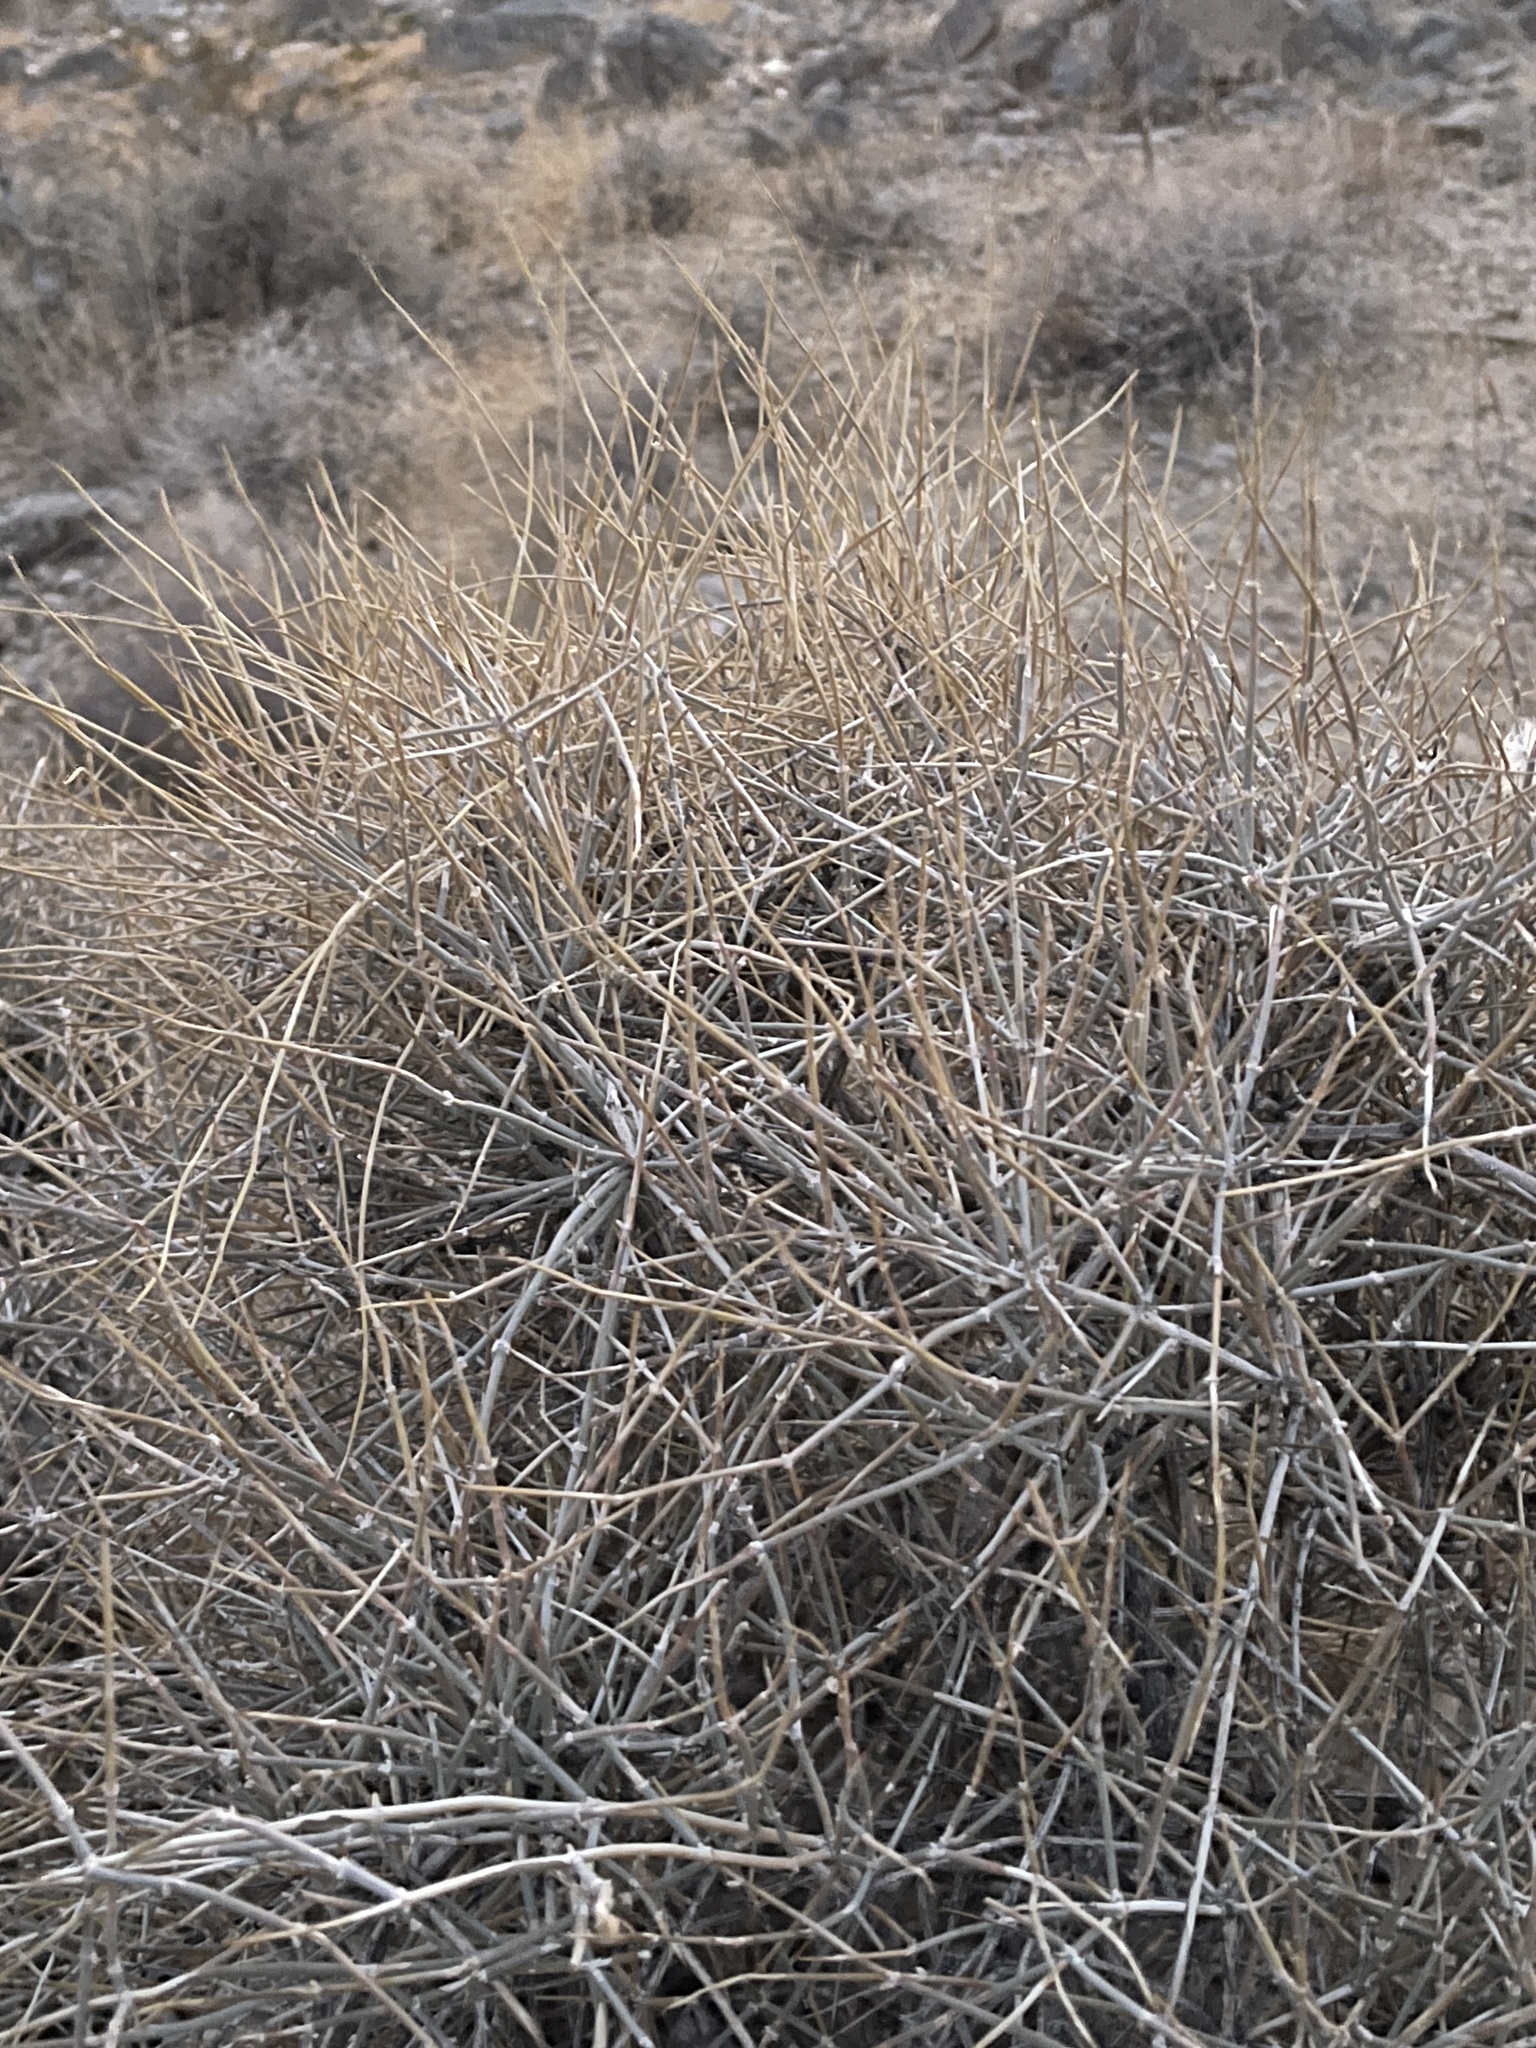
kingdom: Plantae
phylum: Tracheophyta
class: Gnetopsida
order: Ephedrales
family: Ephedraceae
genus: Ephedra
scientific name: Ephedra nevadensis
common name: Gray ephedra
